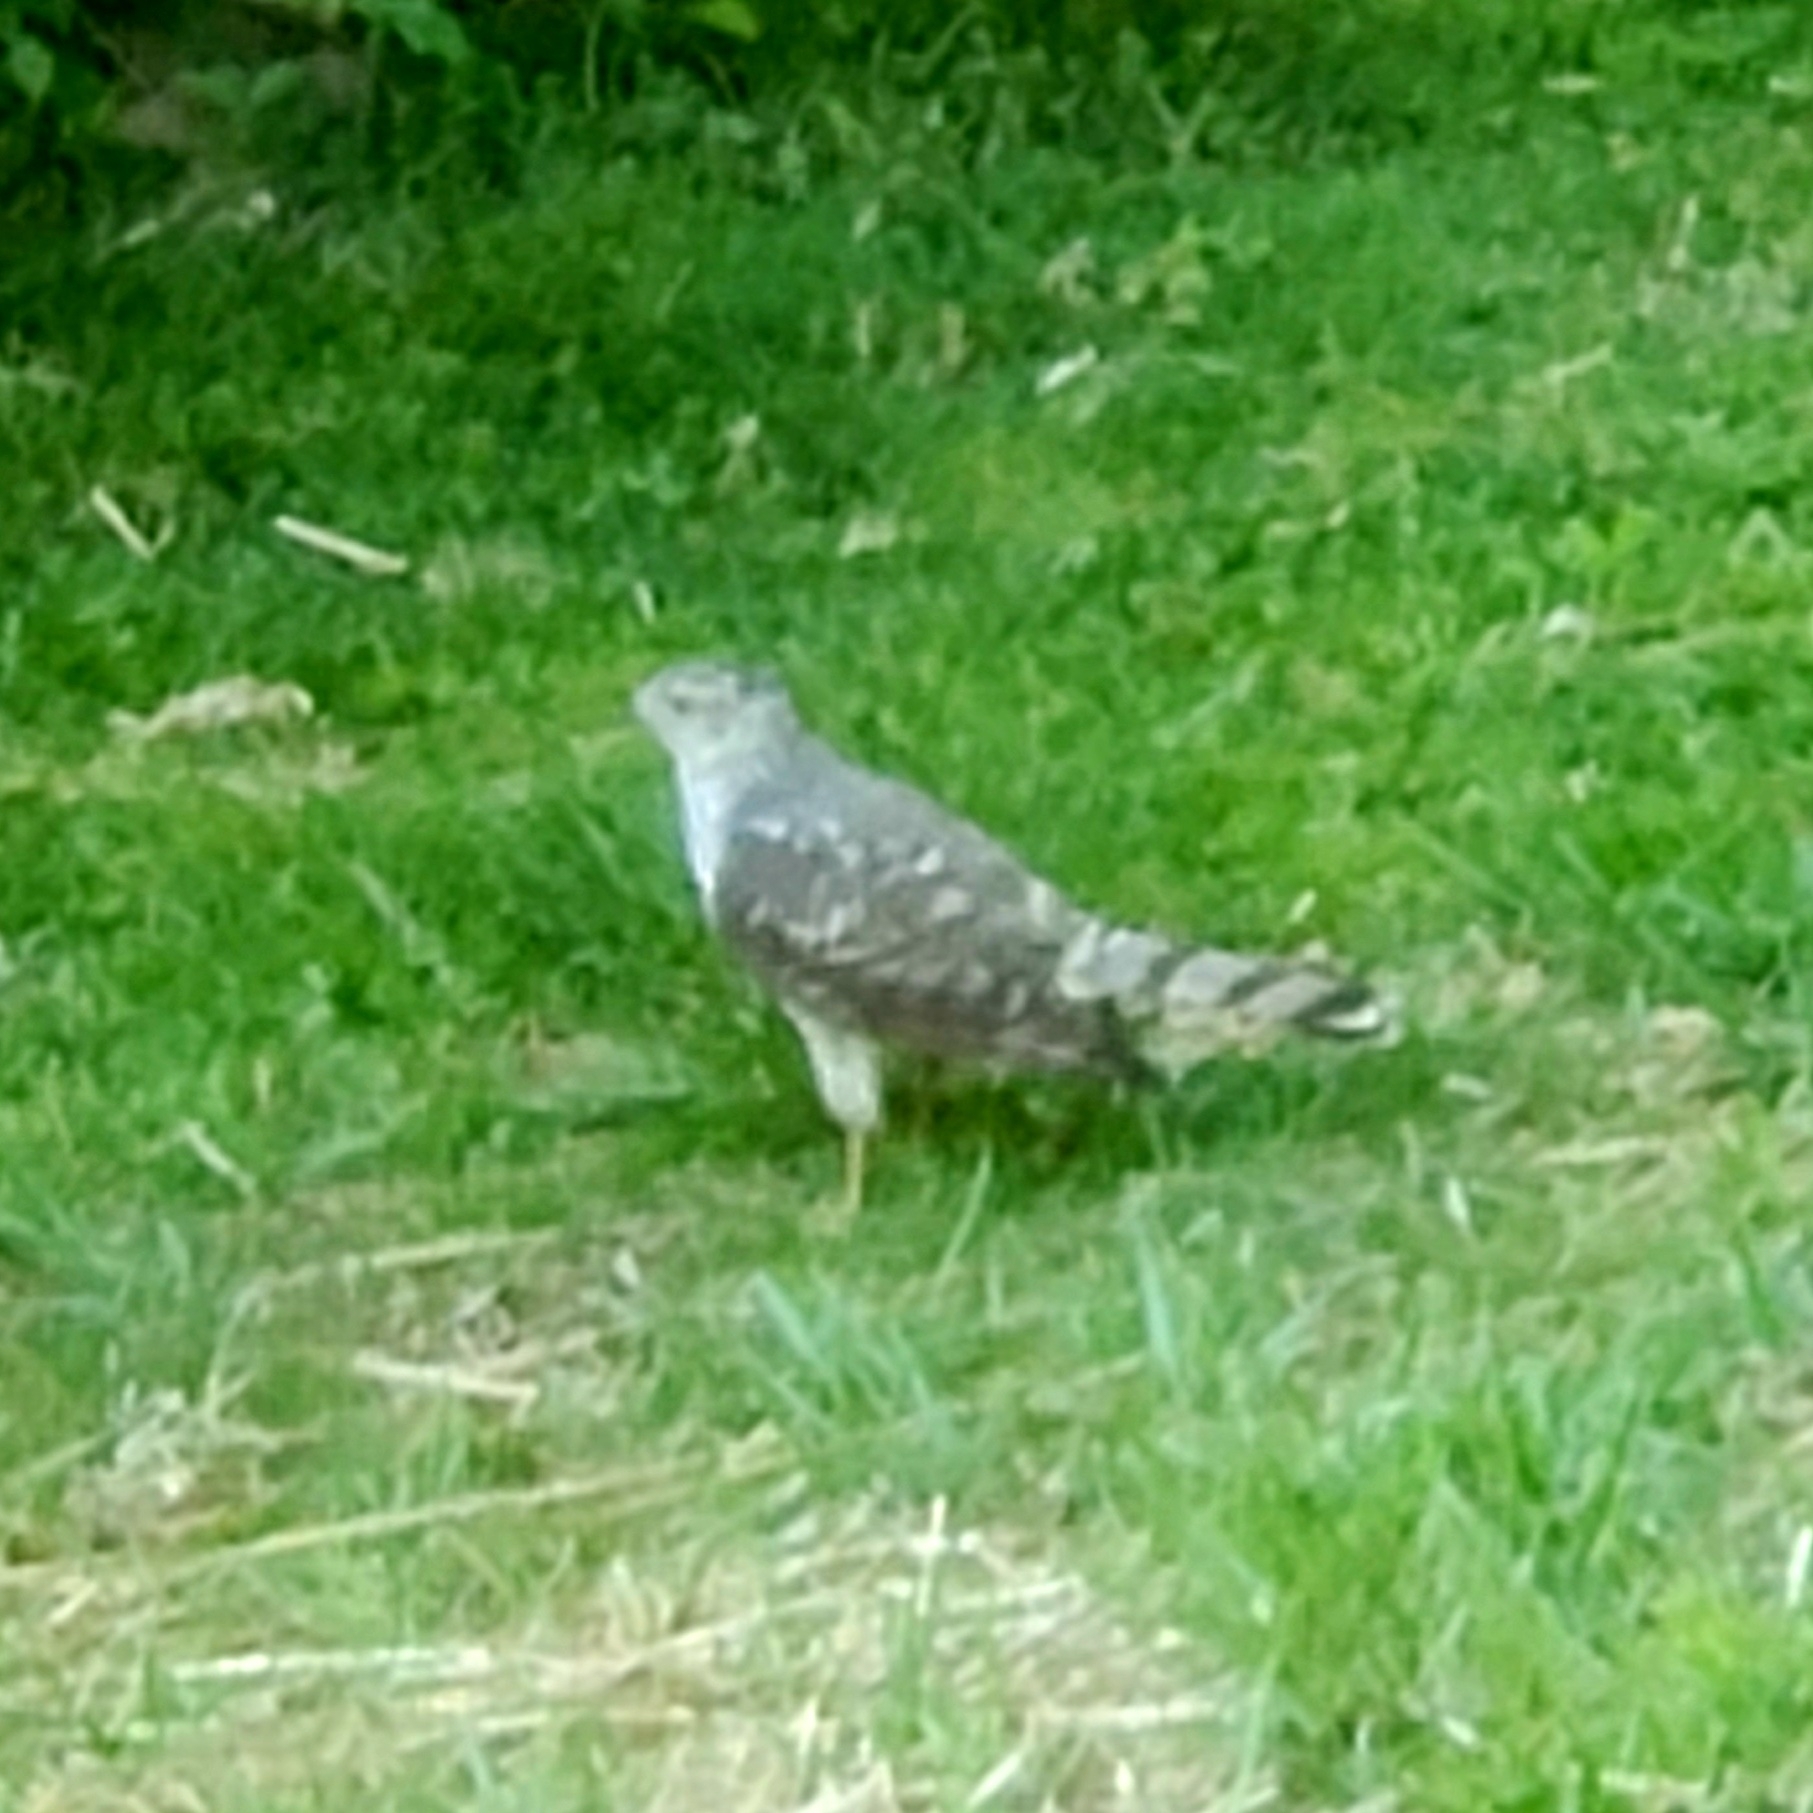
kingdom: Animalia
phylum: Chordata
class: Aves
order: Accipitriformes
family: Accipitridae
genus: Accipiter
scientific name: Accipiter cooperii
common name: Cooper's hawk
